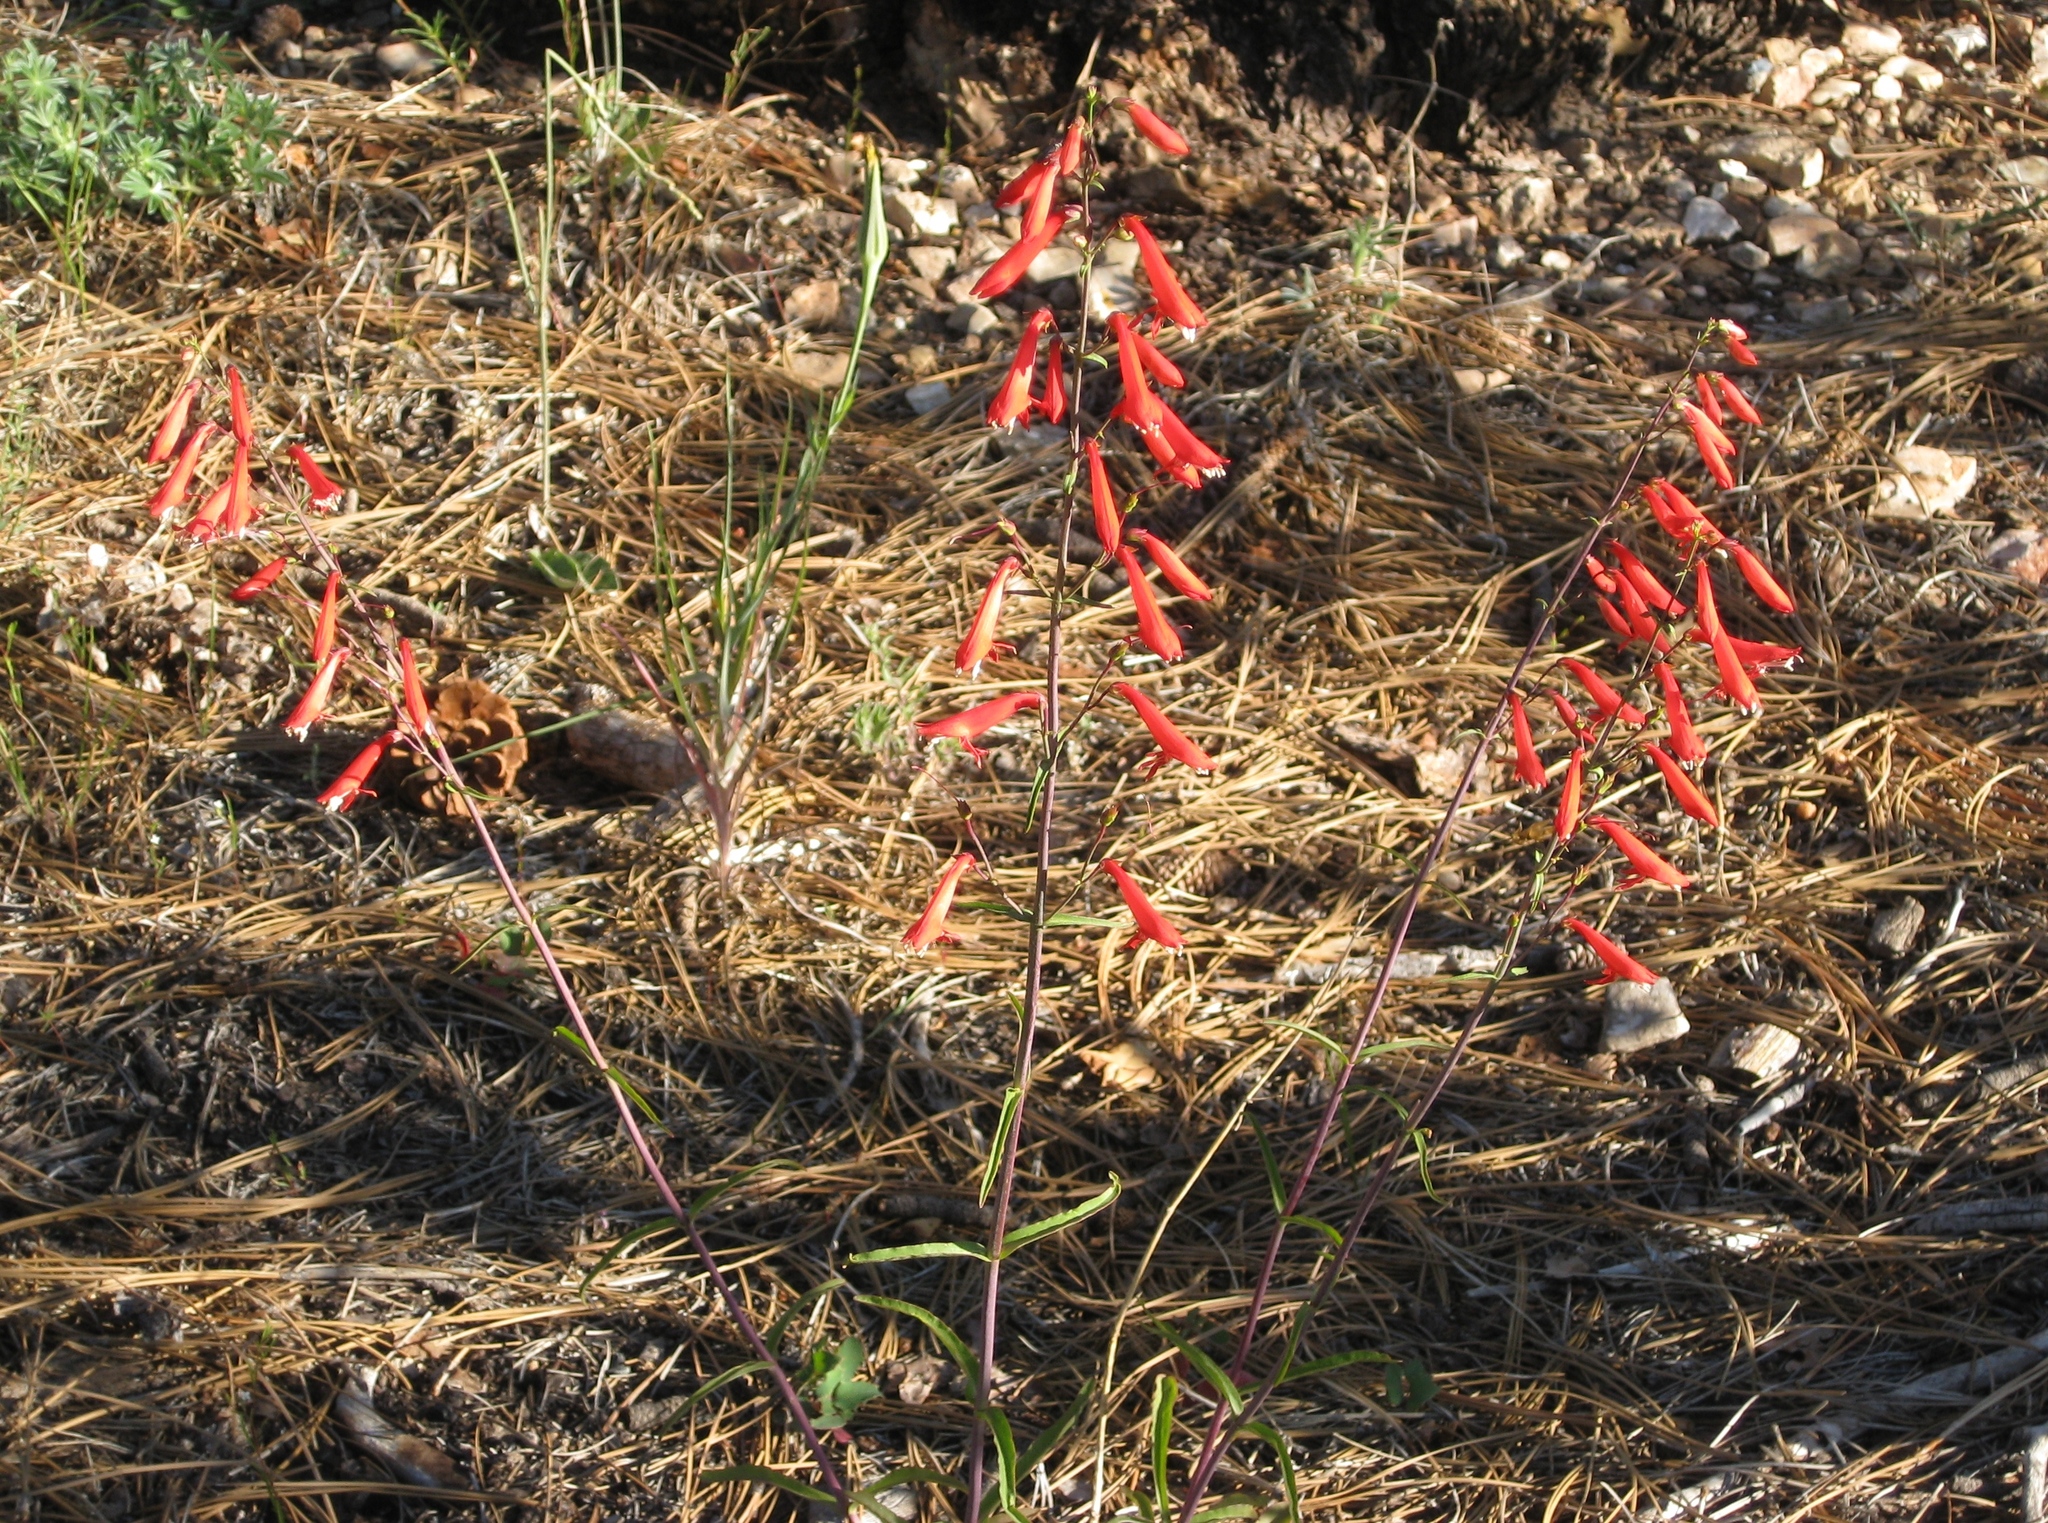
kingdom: Plantae
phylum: Tracheophyta
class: Magnoliopsida
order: Lamiales
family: Plantaginaceae
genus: Penstemon
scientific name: Penstemon rostriflorus
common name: Bridges's penstemon
